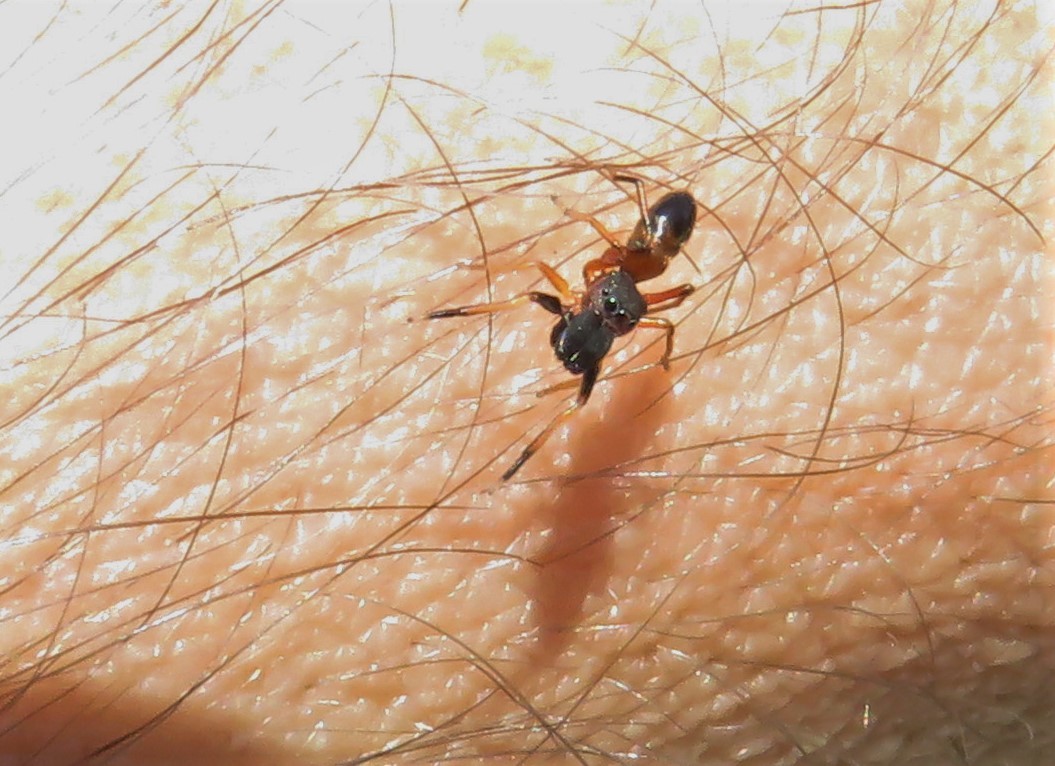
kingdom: Animalia
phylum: Arthropoda
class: Arachnida
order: Araneae
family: Salticidae
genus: Myrmarachne
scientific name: Myrmarachne formicaria
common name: Ant mimic jumping spider
